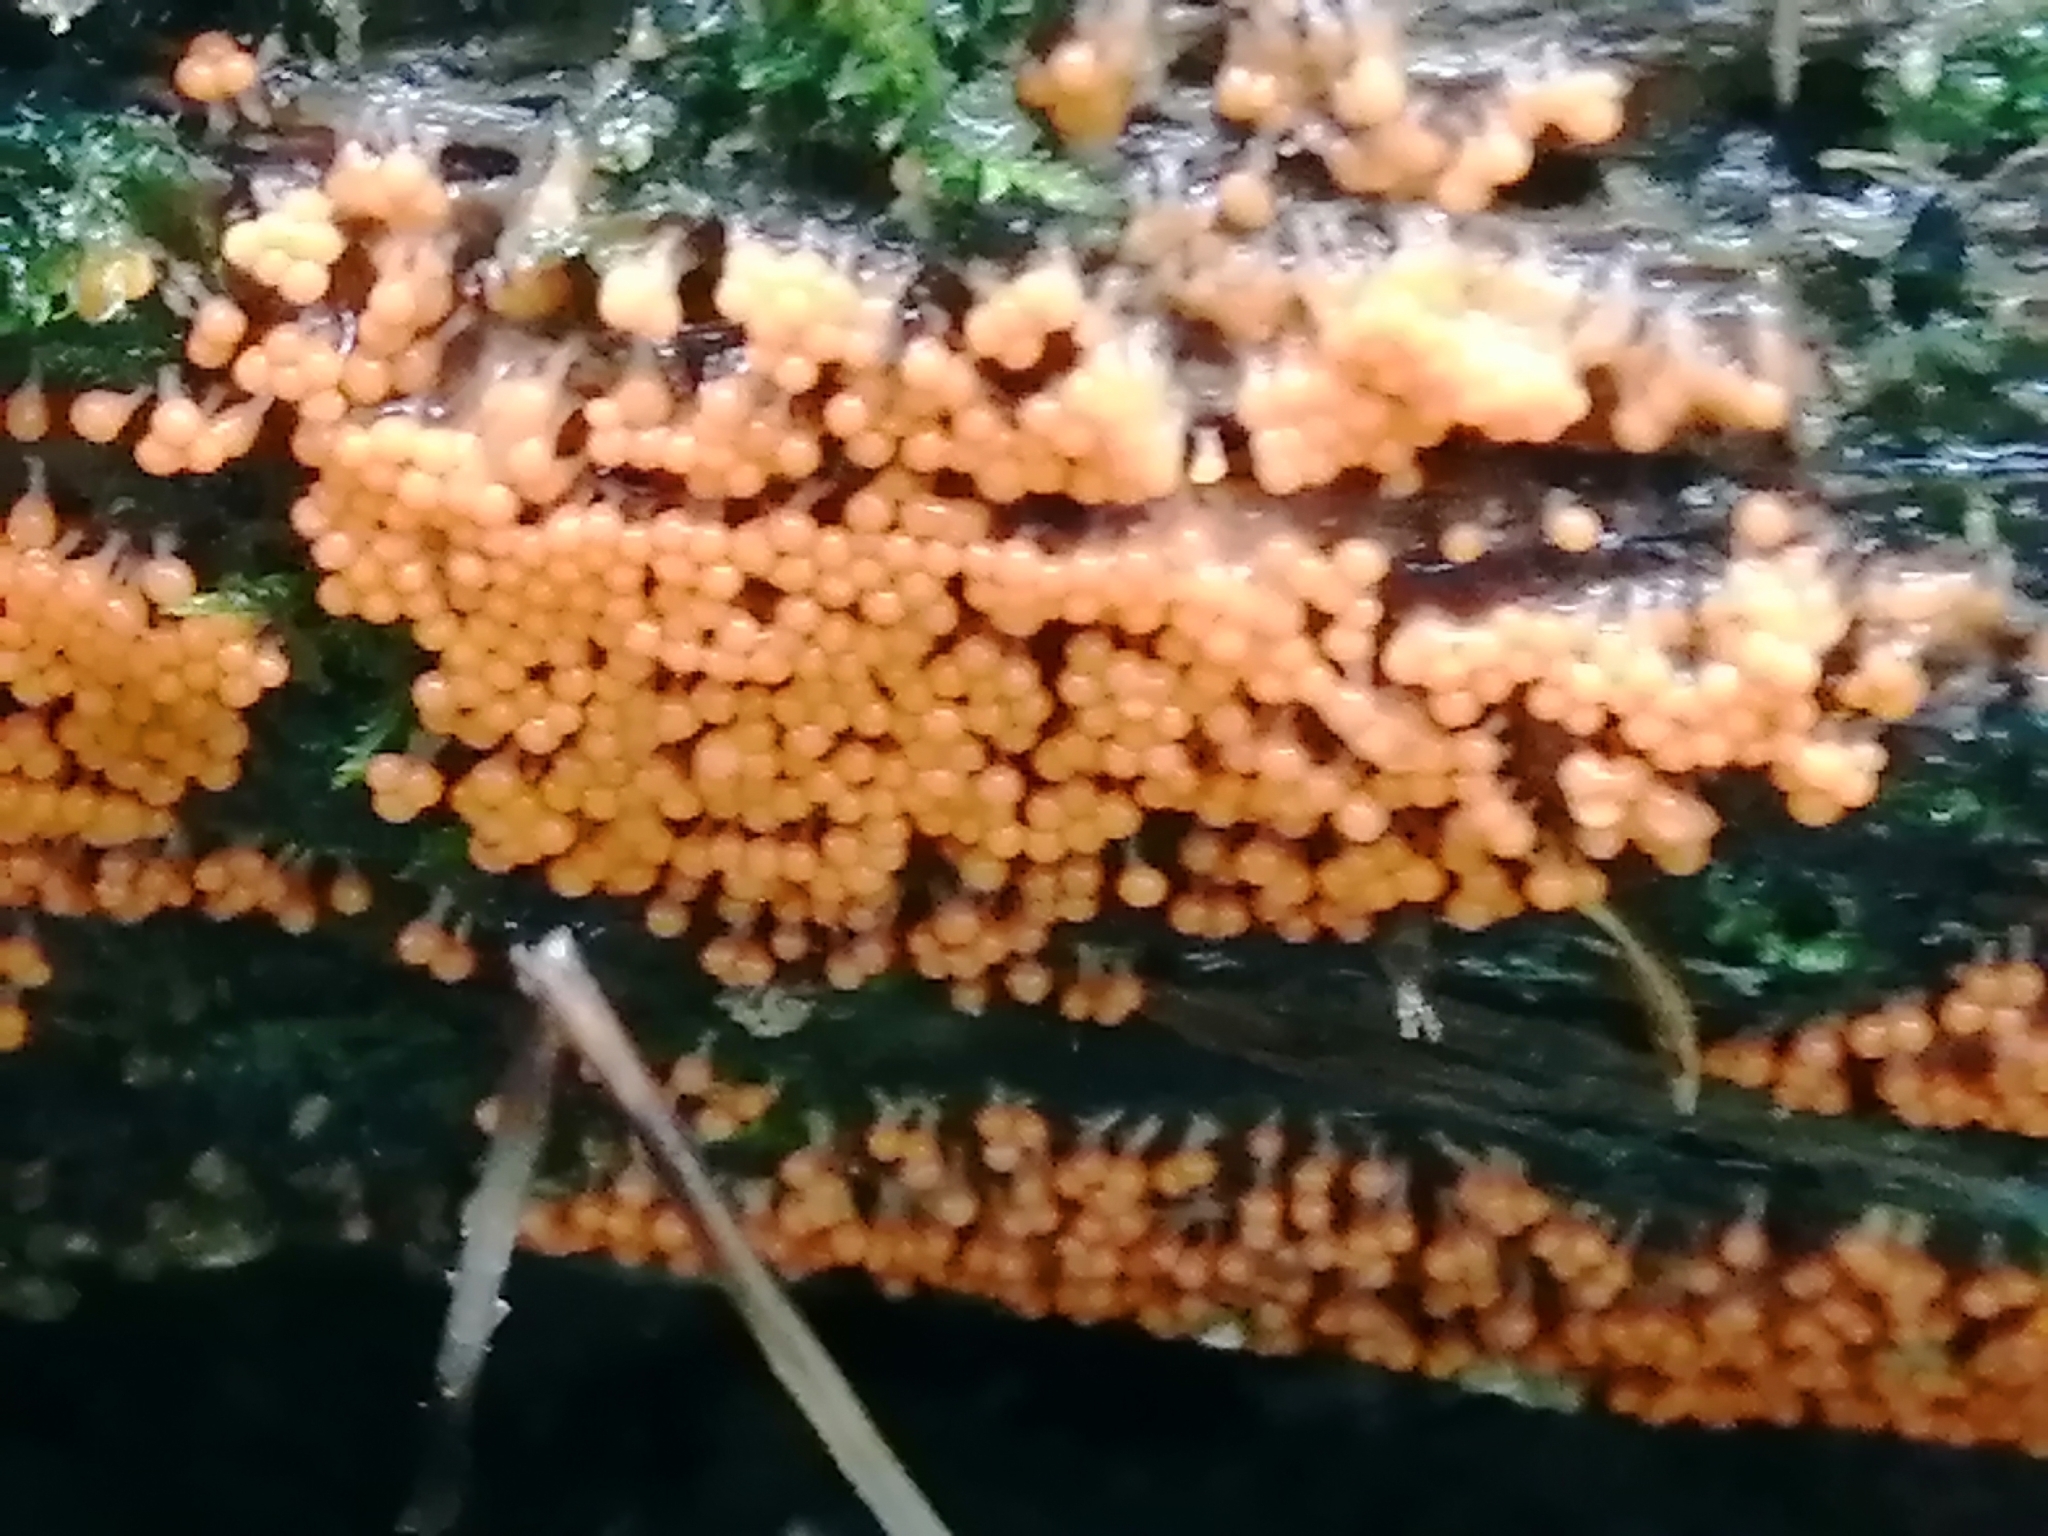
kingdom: Protozoa
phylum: Mycetozoa
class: Myxomycetes
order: Trichiales
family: Arcyriaceae
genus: Hemitrichia
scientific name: Hemitrichia decipiens
